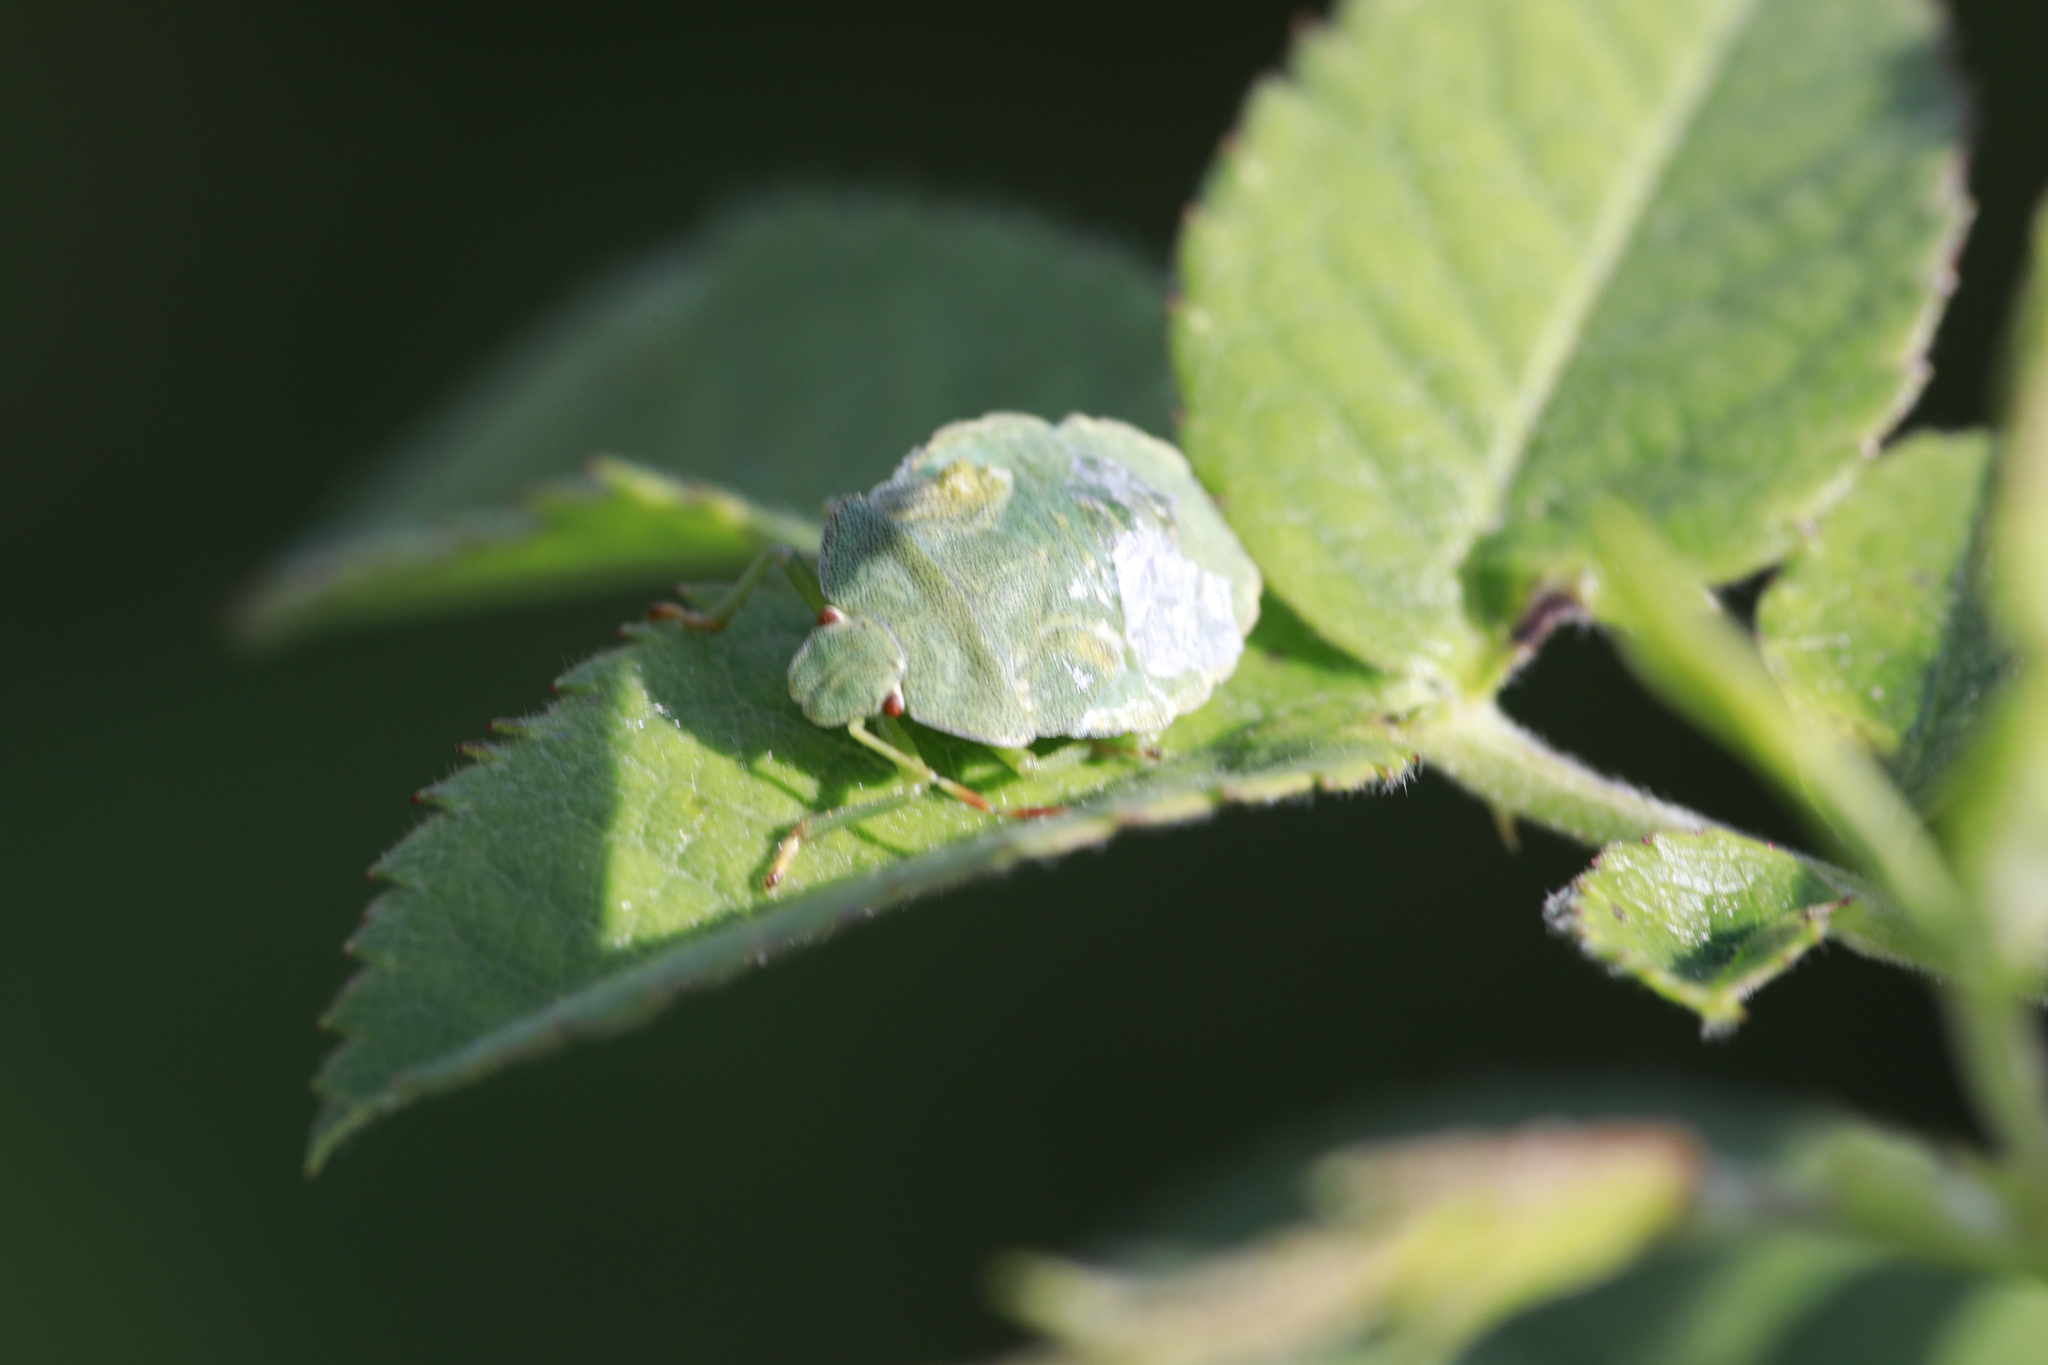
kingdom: Animalia
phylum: Arthropoda
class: Insecta
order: Hemiptera
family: Pentatomidae
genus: Palomena
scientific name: Palomena prasina
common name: Green shieldbug
